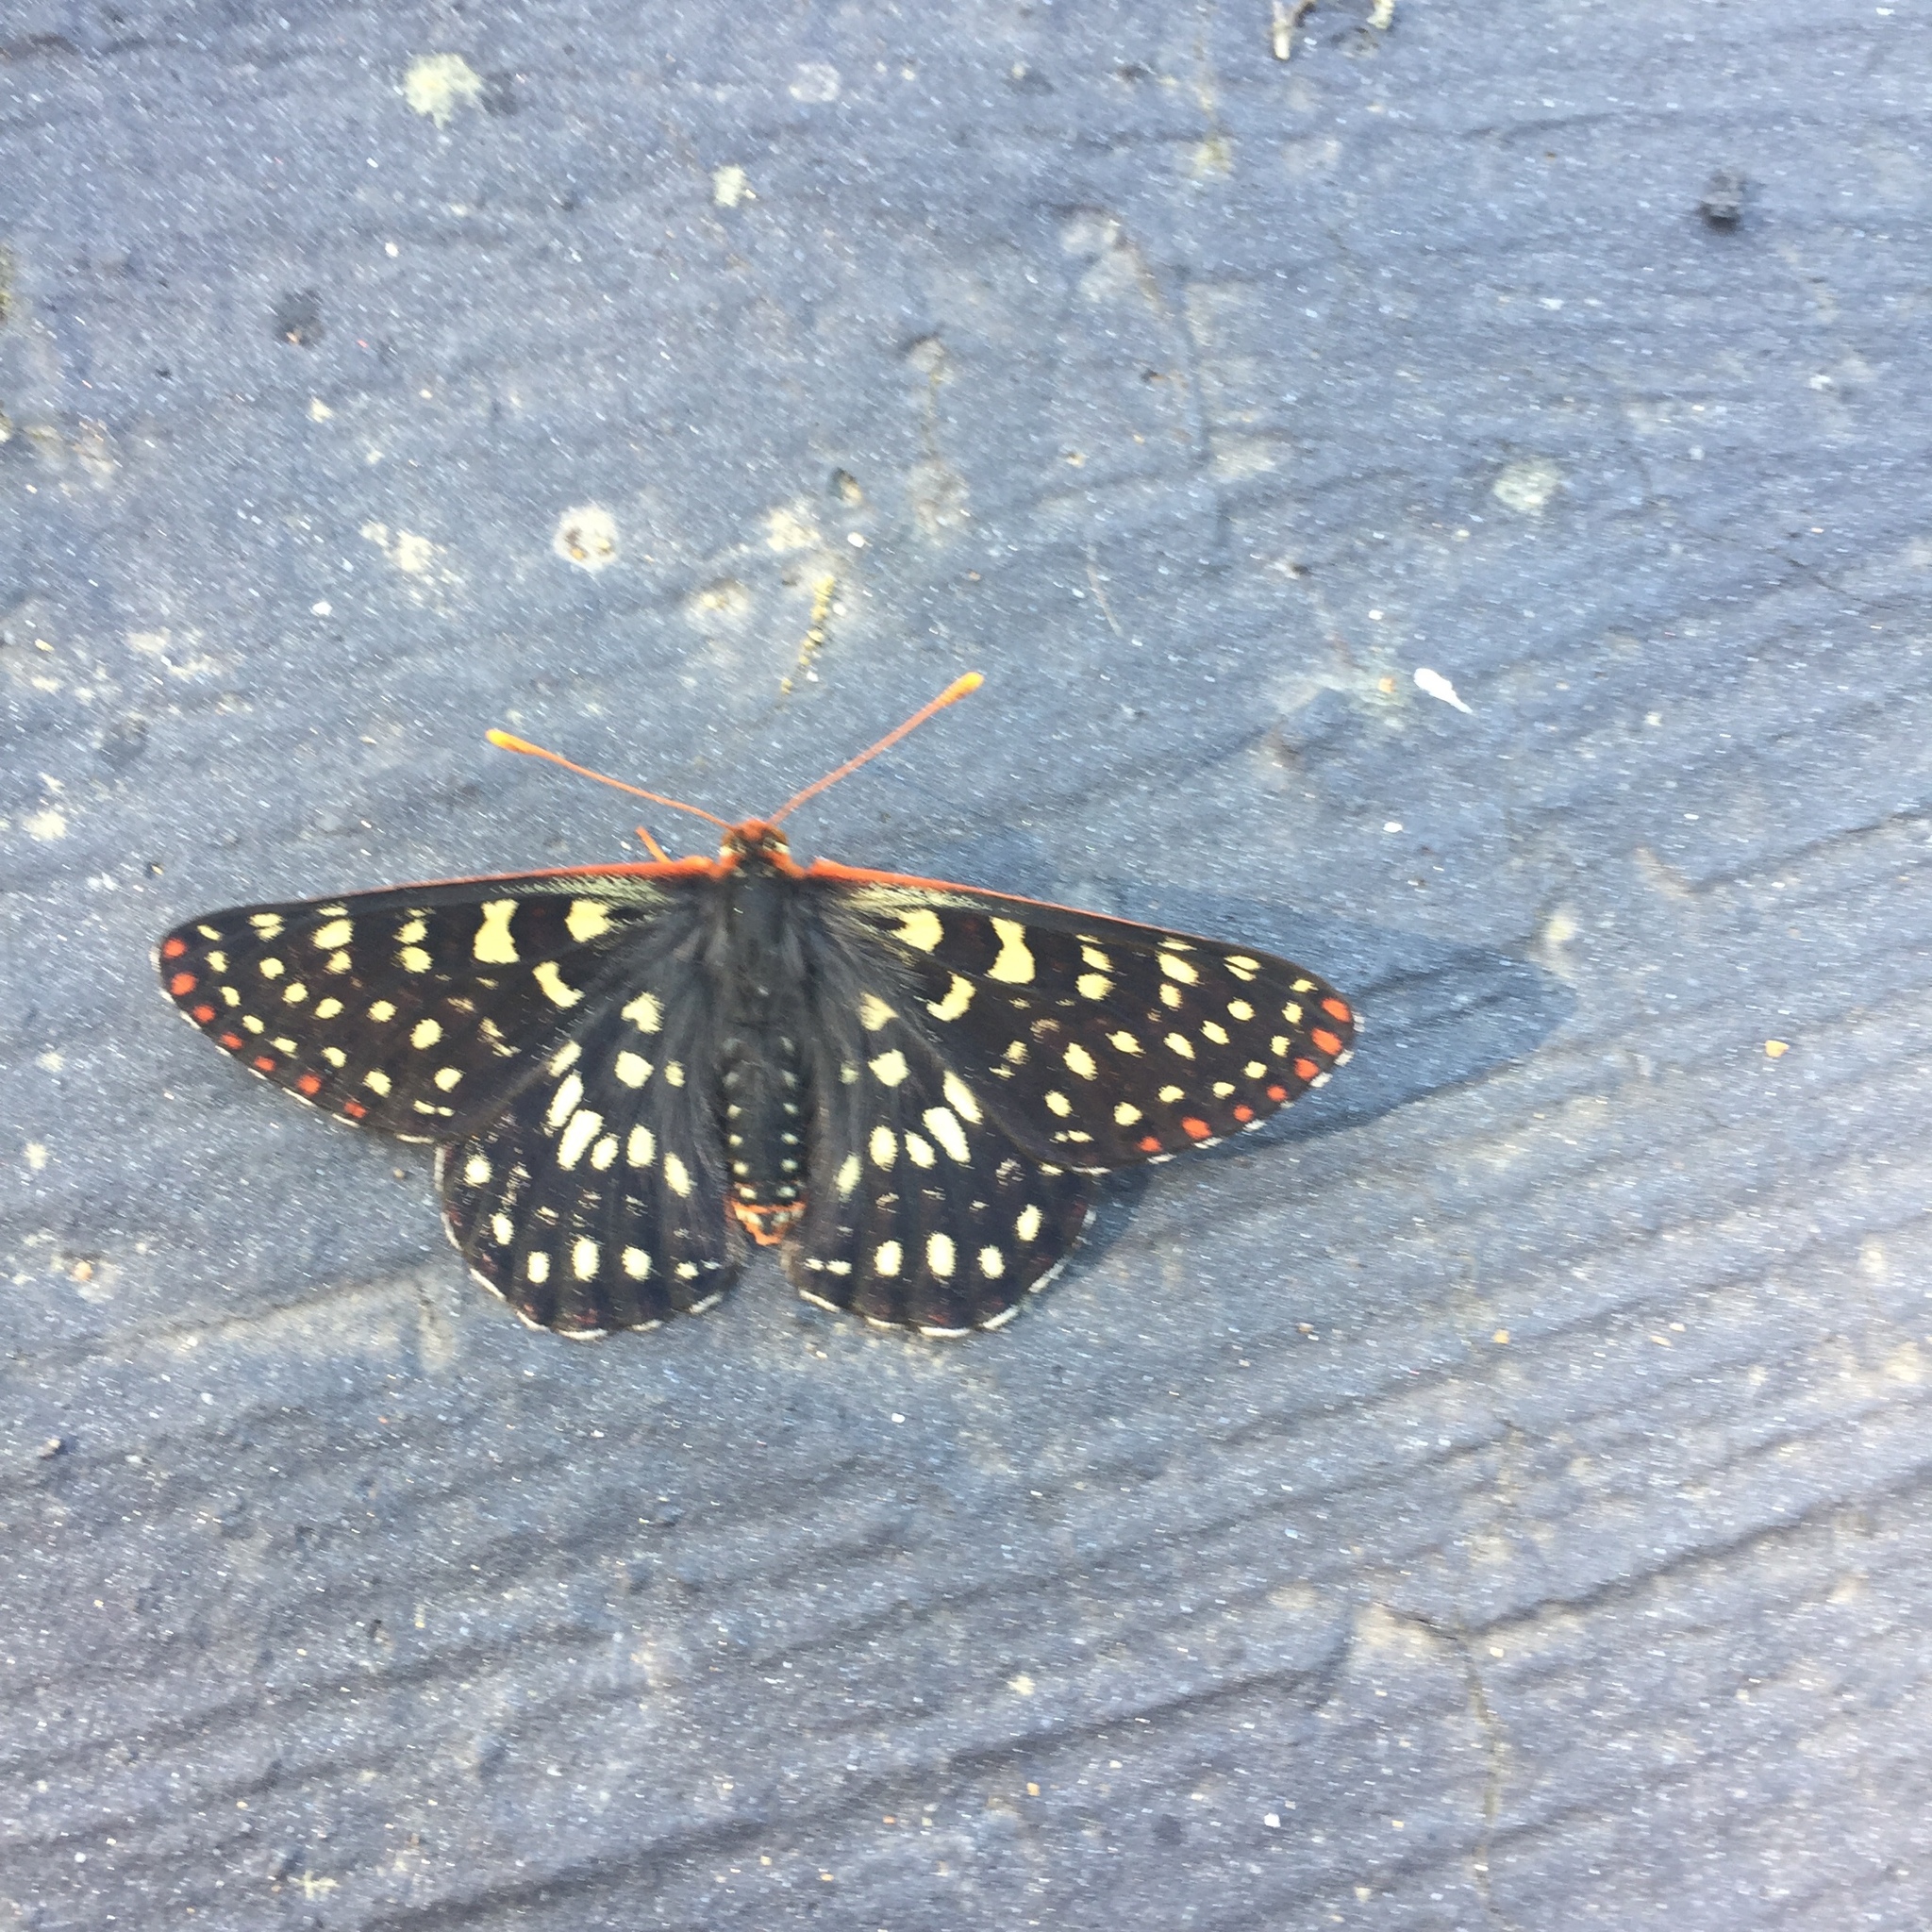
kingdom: Animalia
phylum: Arthropoda
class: Insecta
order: Lepidoptera
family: Nymphalidae
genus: Occidryas
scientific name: Occidryas chalcedona
